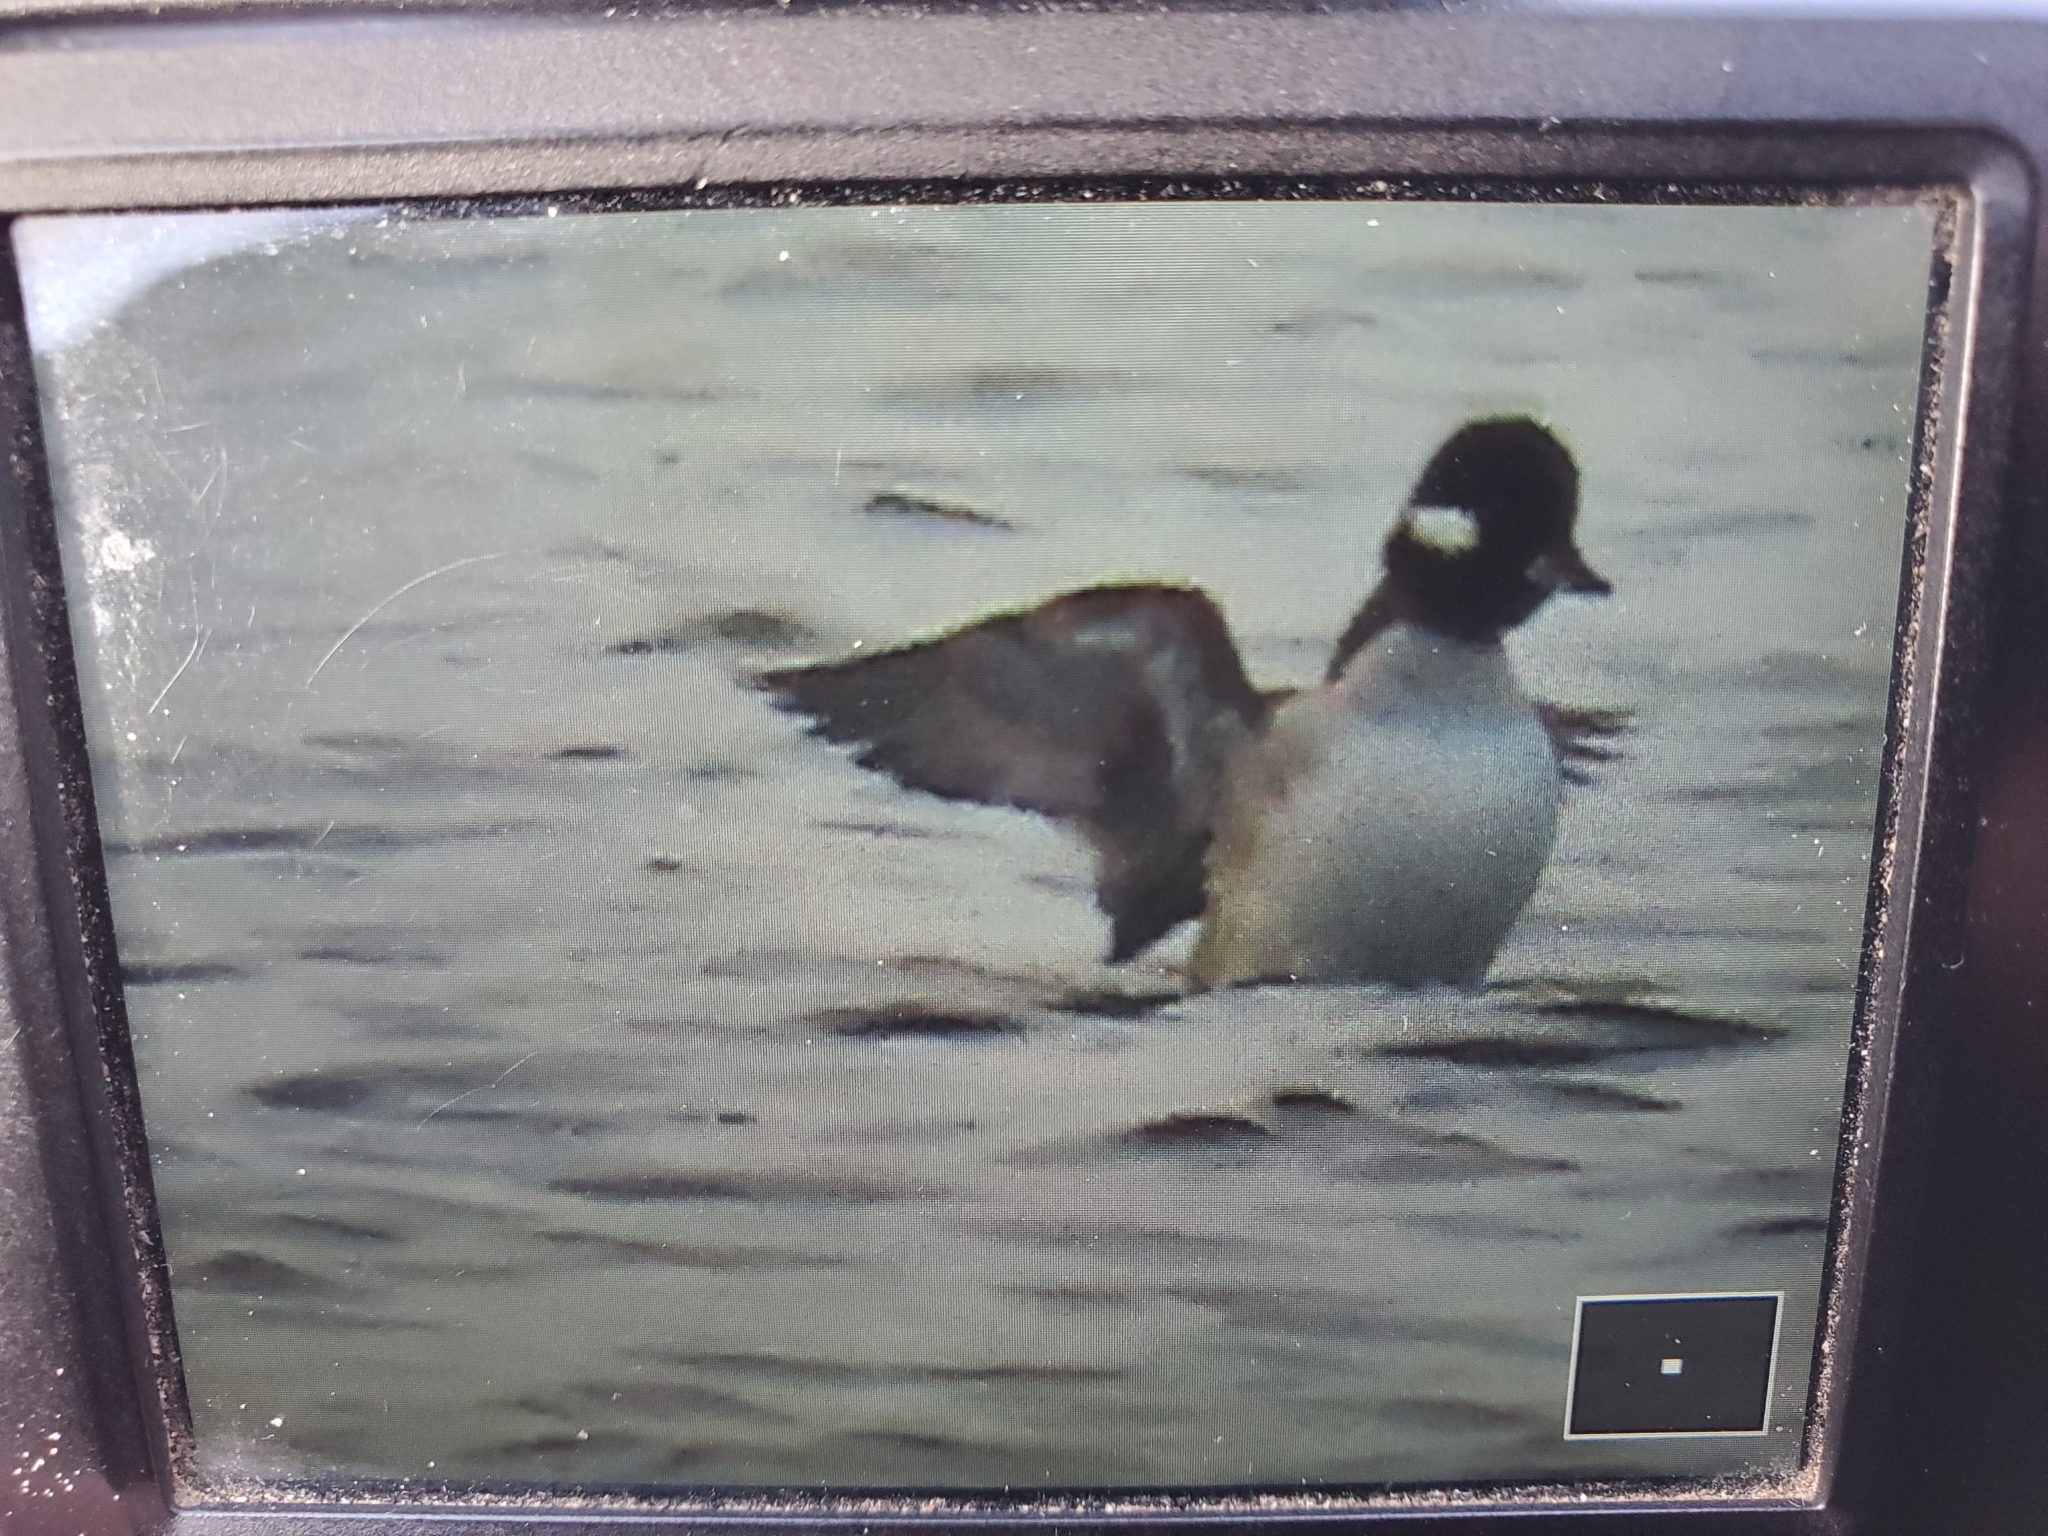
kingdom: Animalia
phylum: Chordata
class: Aves
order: Anseriformes
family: Anatidae
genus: Bucephala
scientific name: Bucephala albeola
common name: Bufflehead
